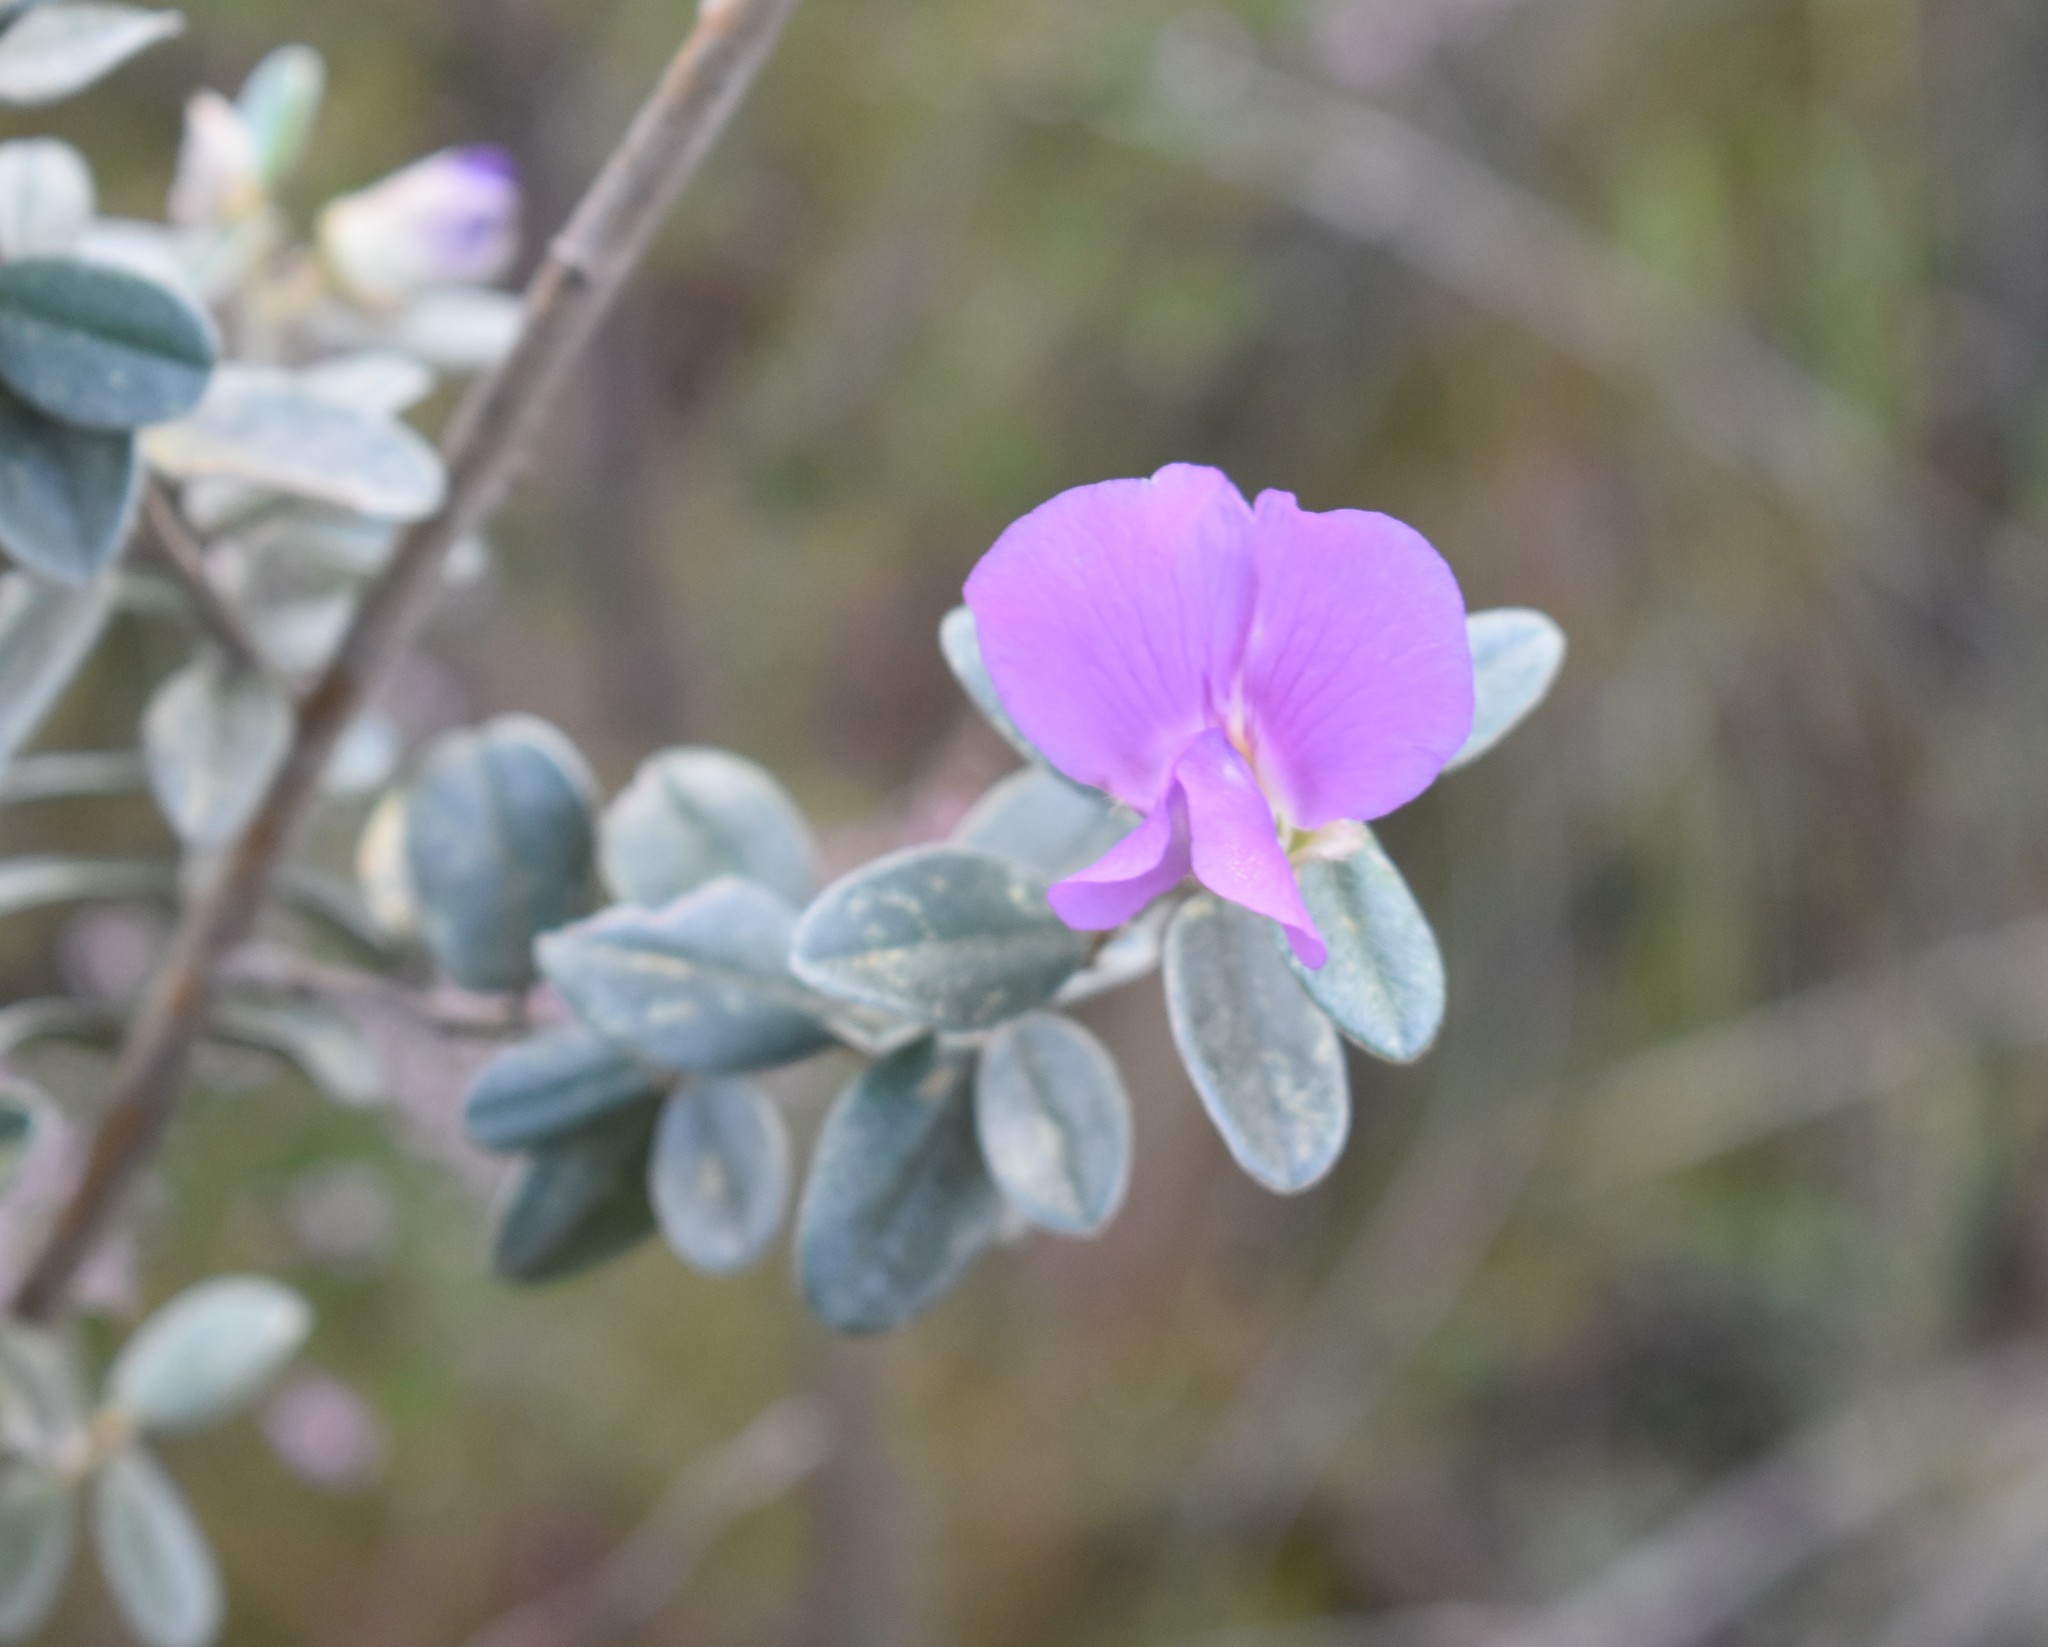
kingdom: Plantae
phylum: Tracheophyta
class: Magnoliopsida
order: Fabales
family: Fabaceae
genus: Podalyria
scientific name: Podalyria myrtillifolia
